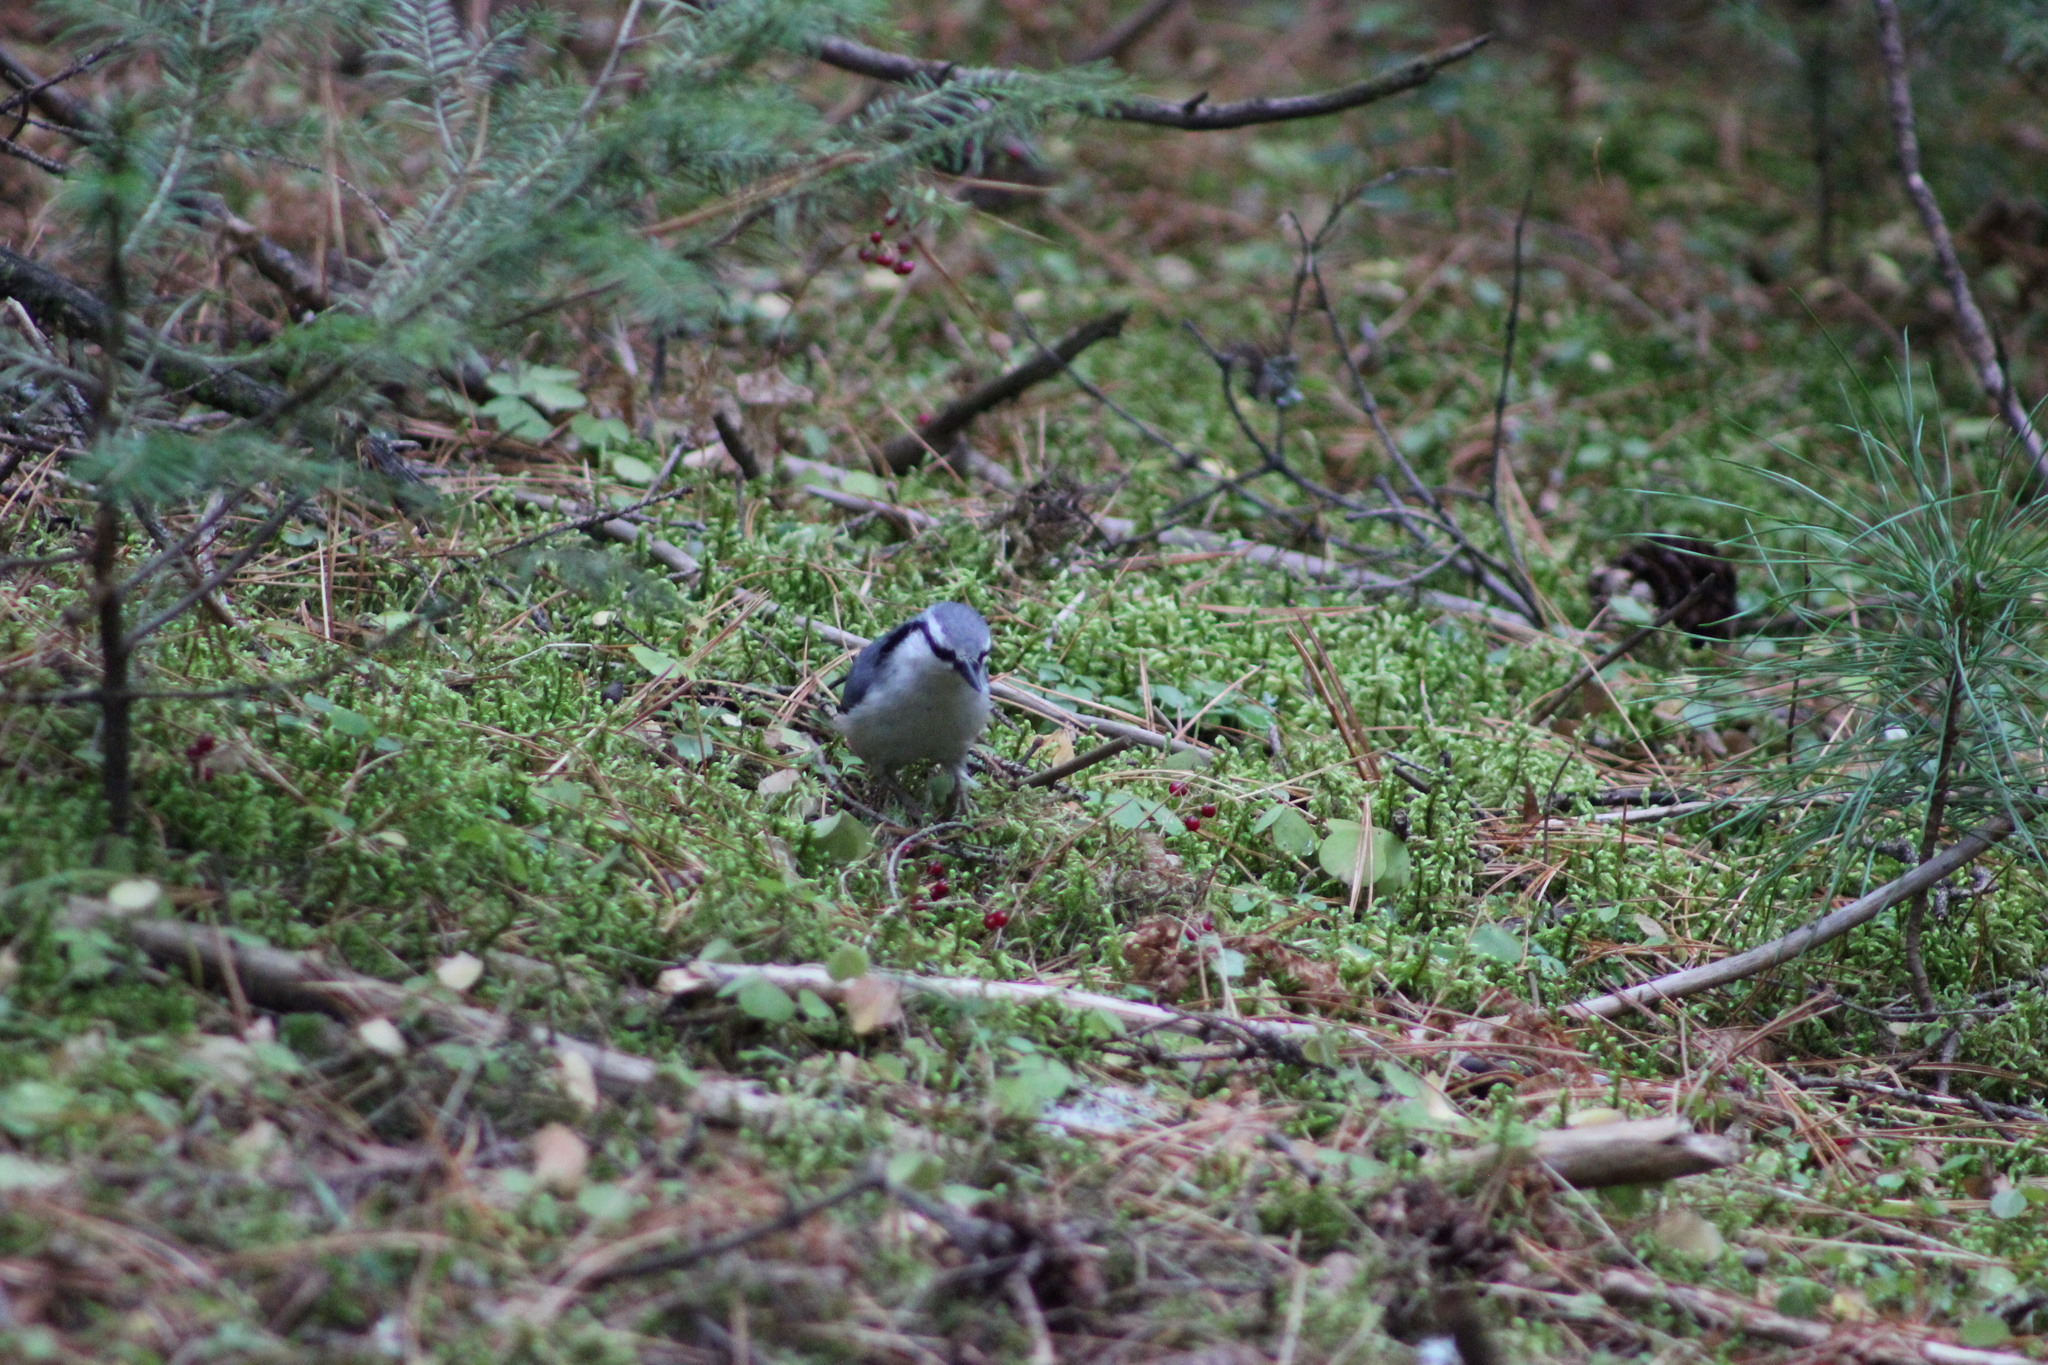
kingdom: Animalia
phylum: Chordata
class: Aves
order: Passeriformes
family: Sittidae
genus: Sitta
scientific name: Sitta europaea
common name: Eurasian nuthatch
